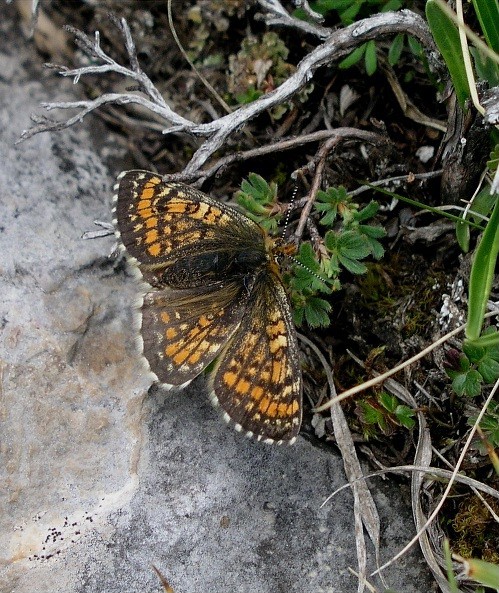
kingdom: Animalia
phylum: Arthropoda
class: Insecta
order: Lepidoptera
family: Nymphalidae
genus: Melitaea
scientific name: Melitaea arcesia
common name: Blackvein fritillary
